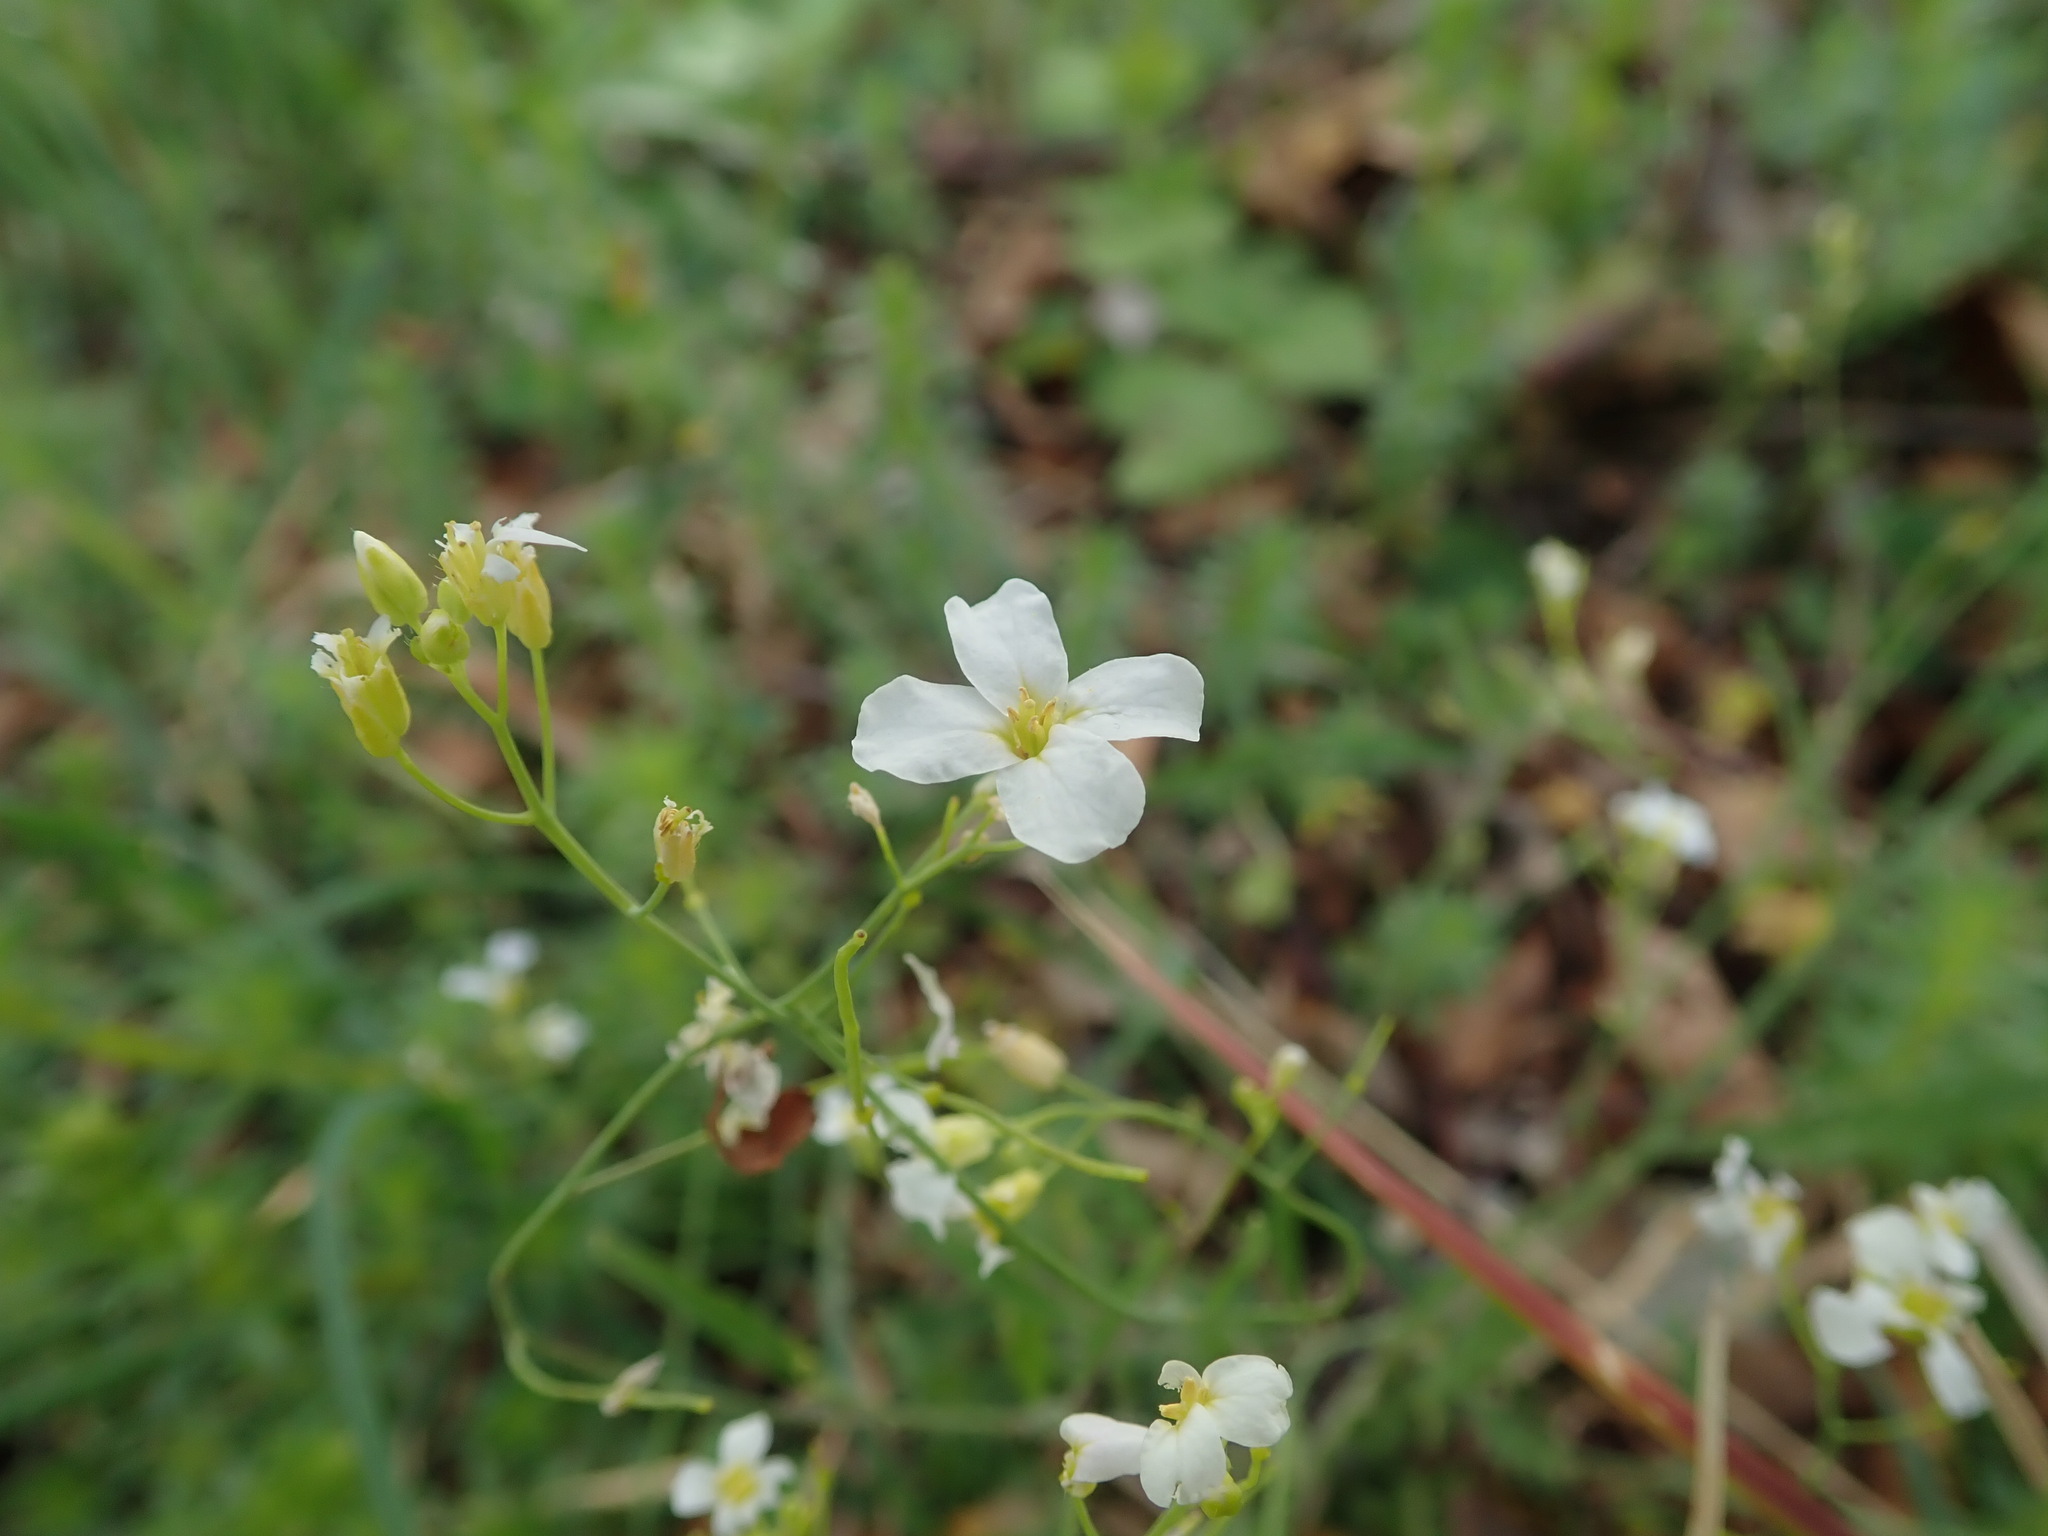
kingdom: Plantae
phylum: Tracheophyta
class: Magnoliopsida
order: Brassicales
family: Brassicaceae
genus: Arabidopsis
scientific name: Arabidopsis arenosa
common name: Sand rock-cress
